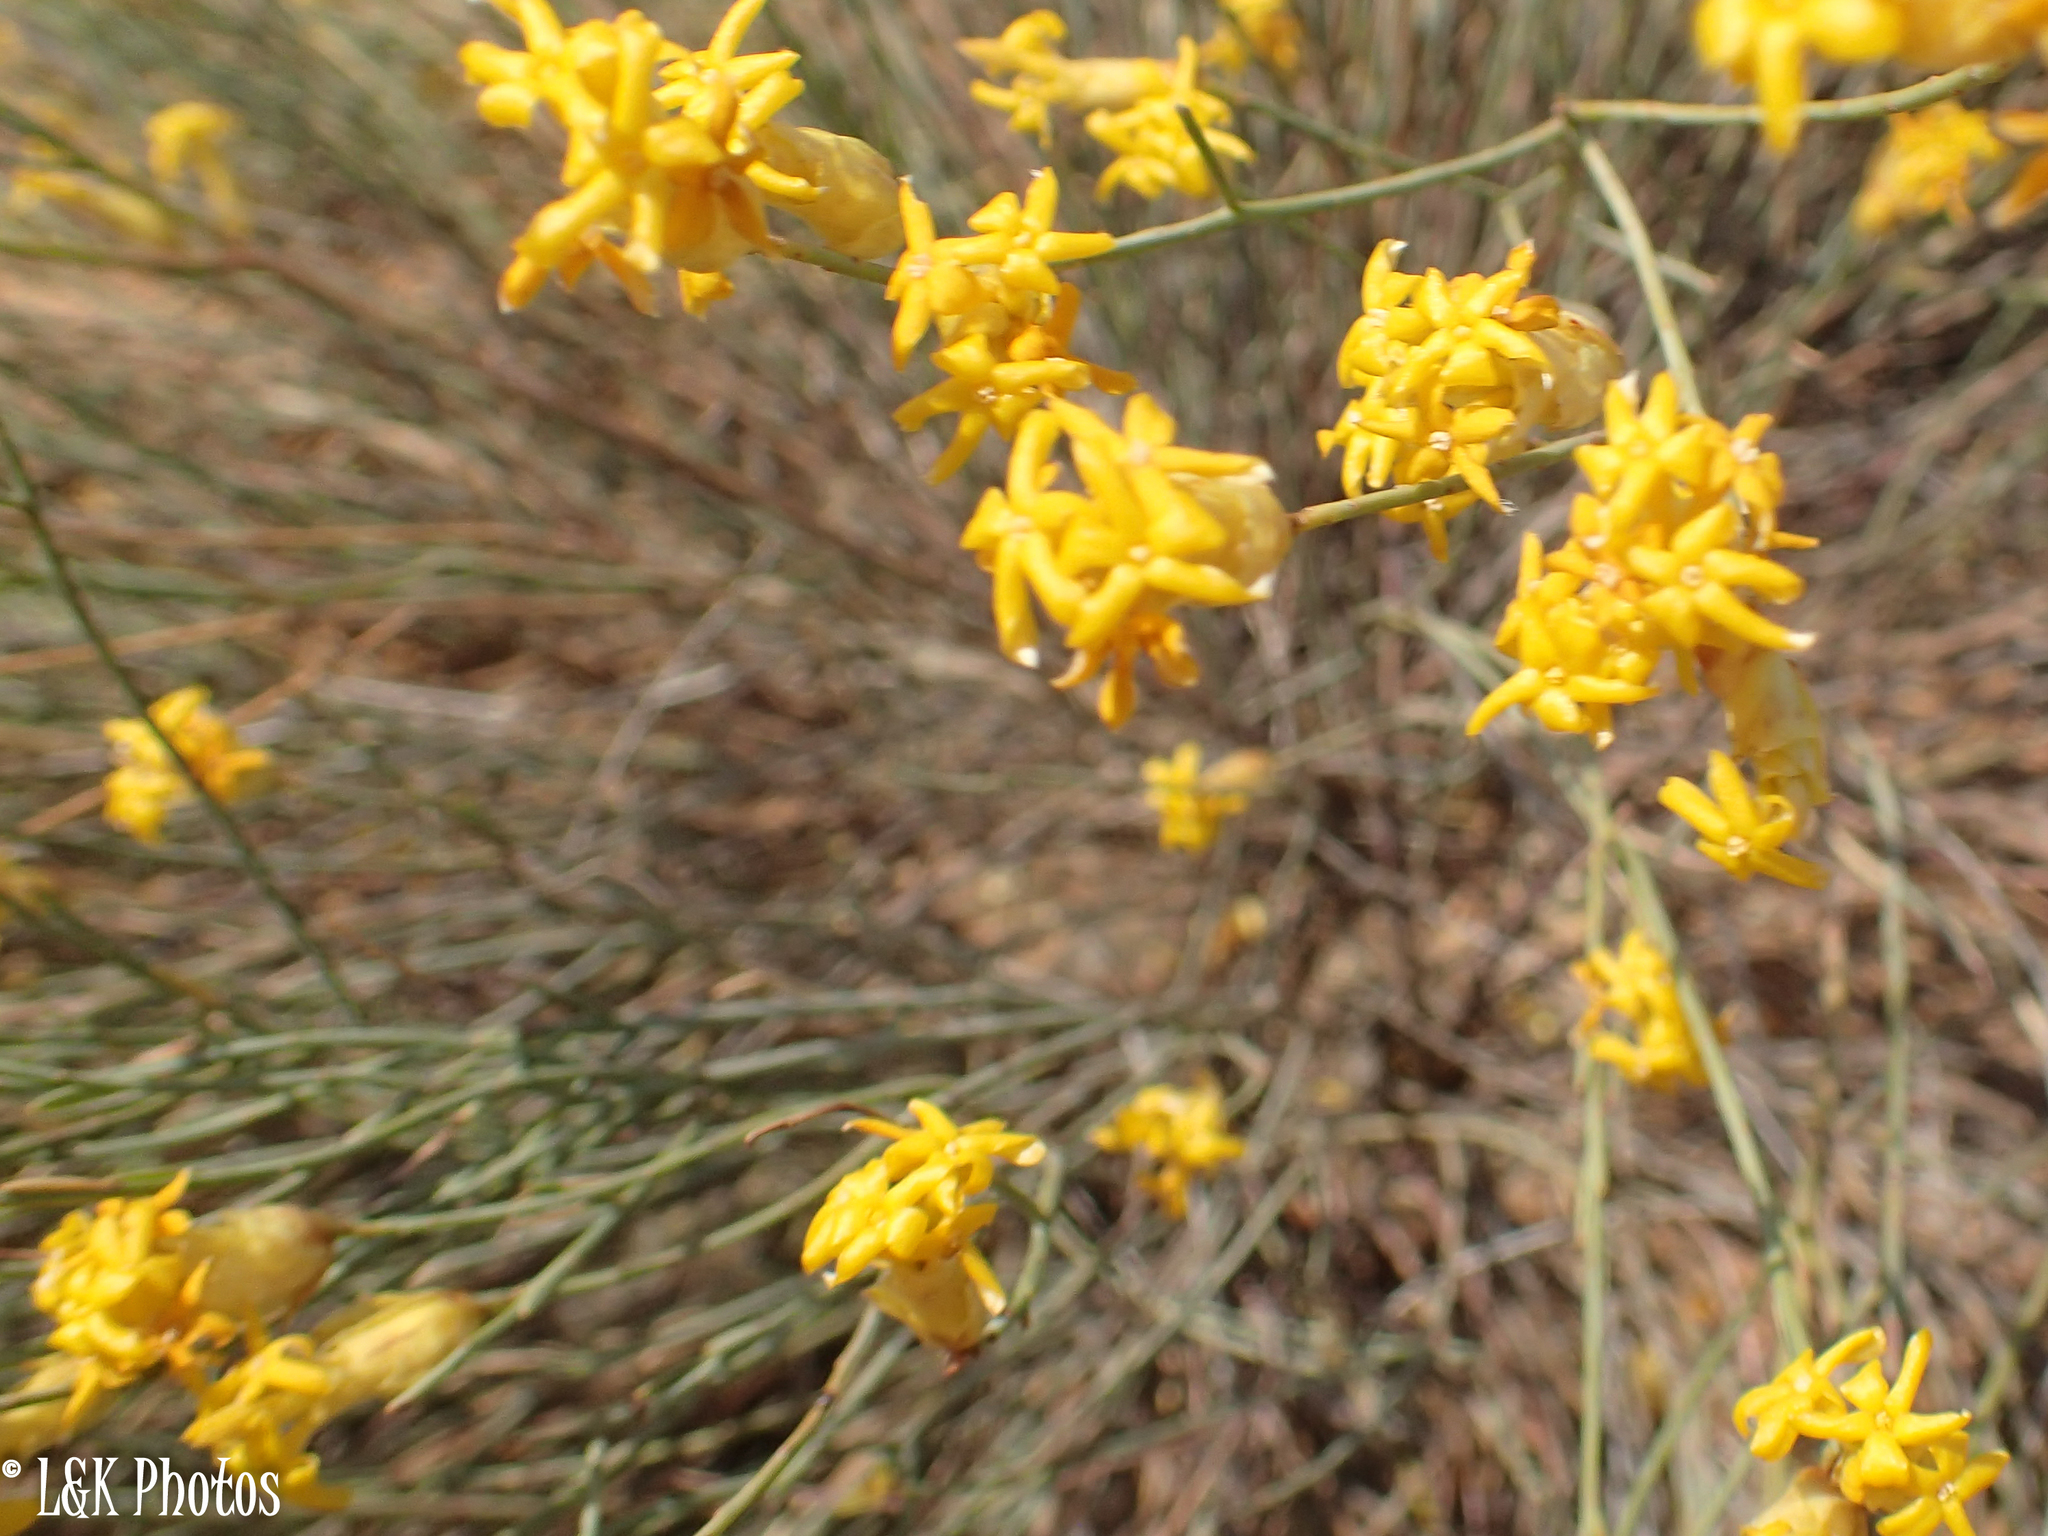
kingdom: Plantae
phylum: Tracheophyta
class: Magnoliopsida
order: Malvales
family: Thymelaeaceae
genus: Gnidia
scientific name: Gnidia polycephala
